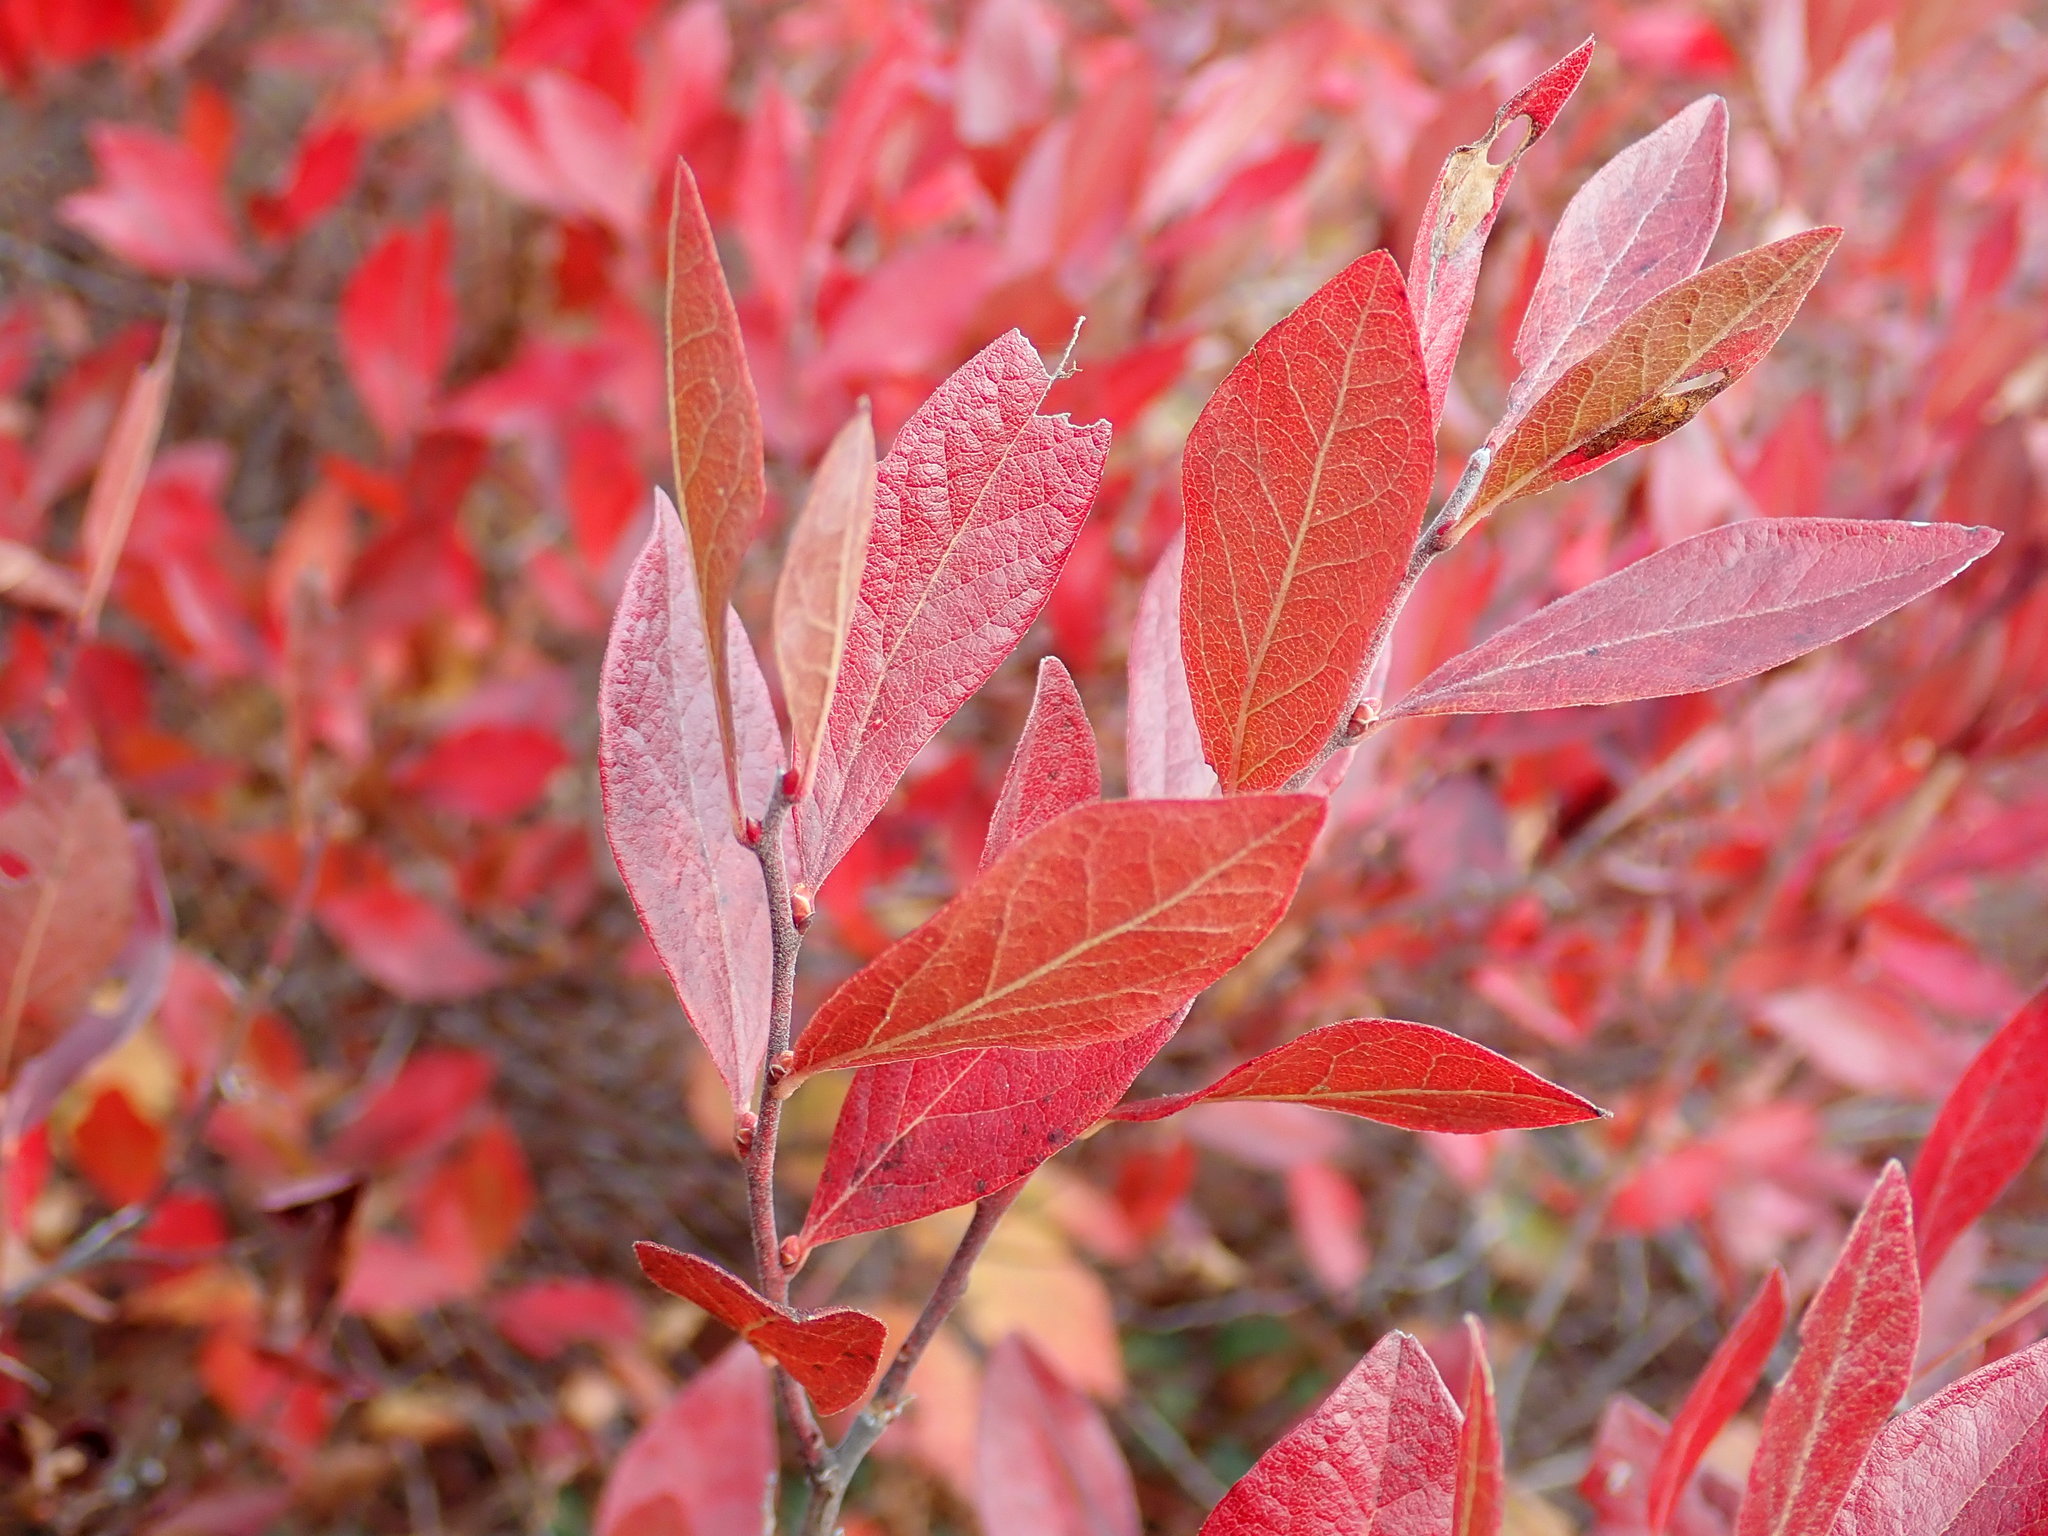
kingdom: Plantae
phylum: Tracheophyta
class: Magnoliopsida
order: Ericales
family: Ericaceae
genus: Gaylussacia
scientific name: Gaylussacia baccata
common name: Black huckleberry
